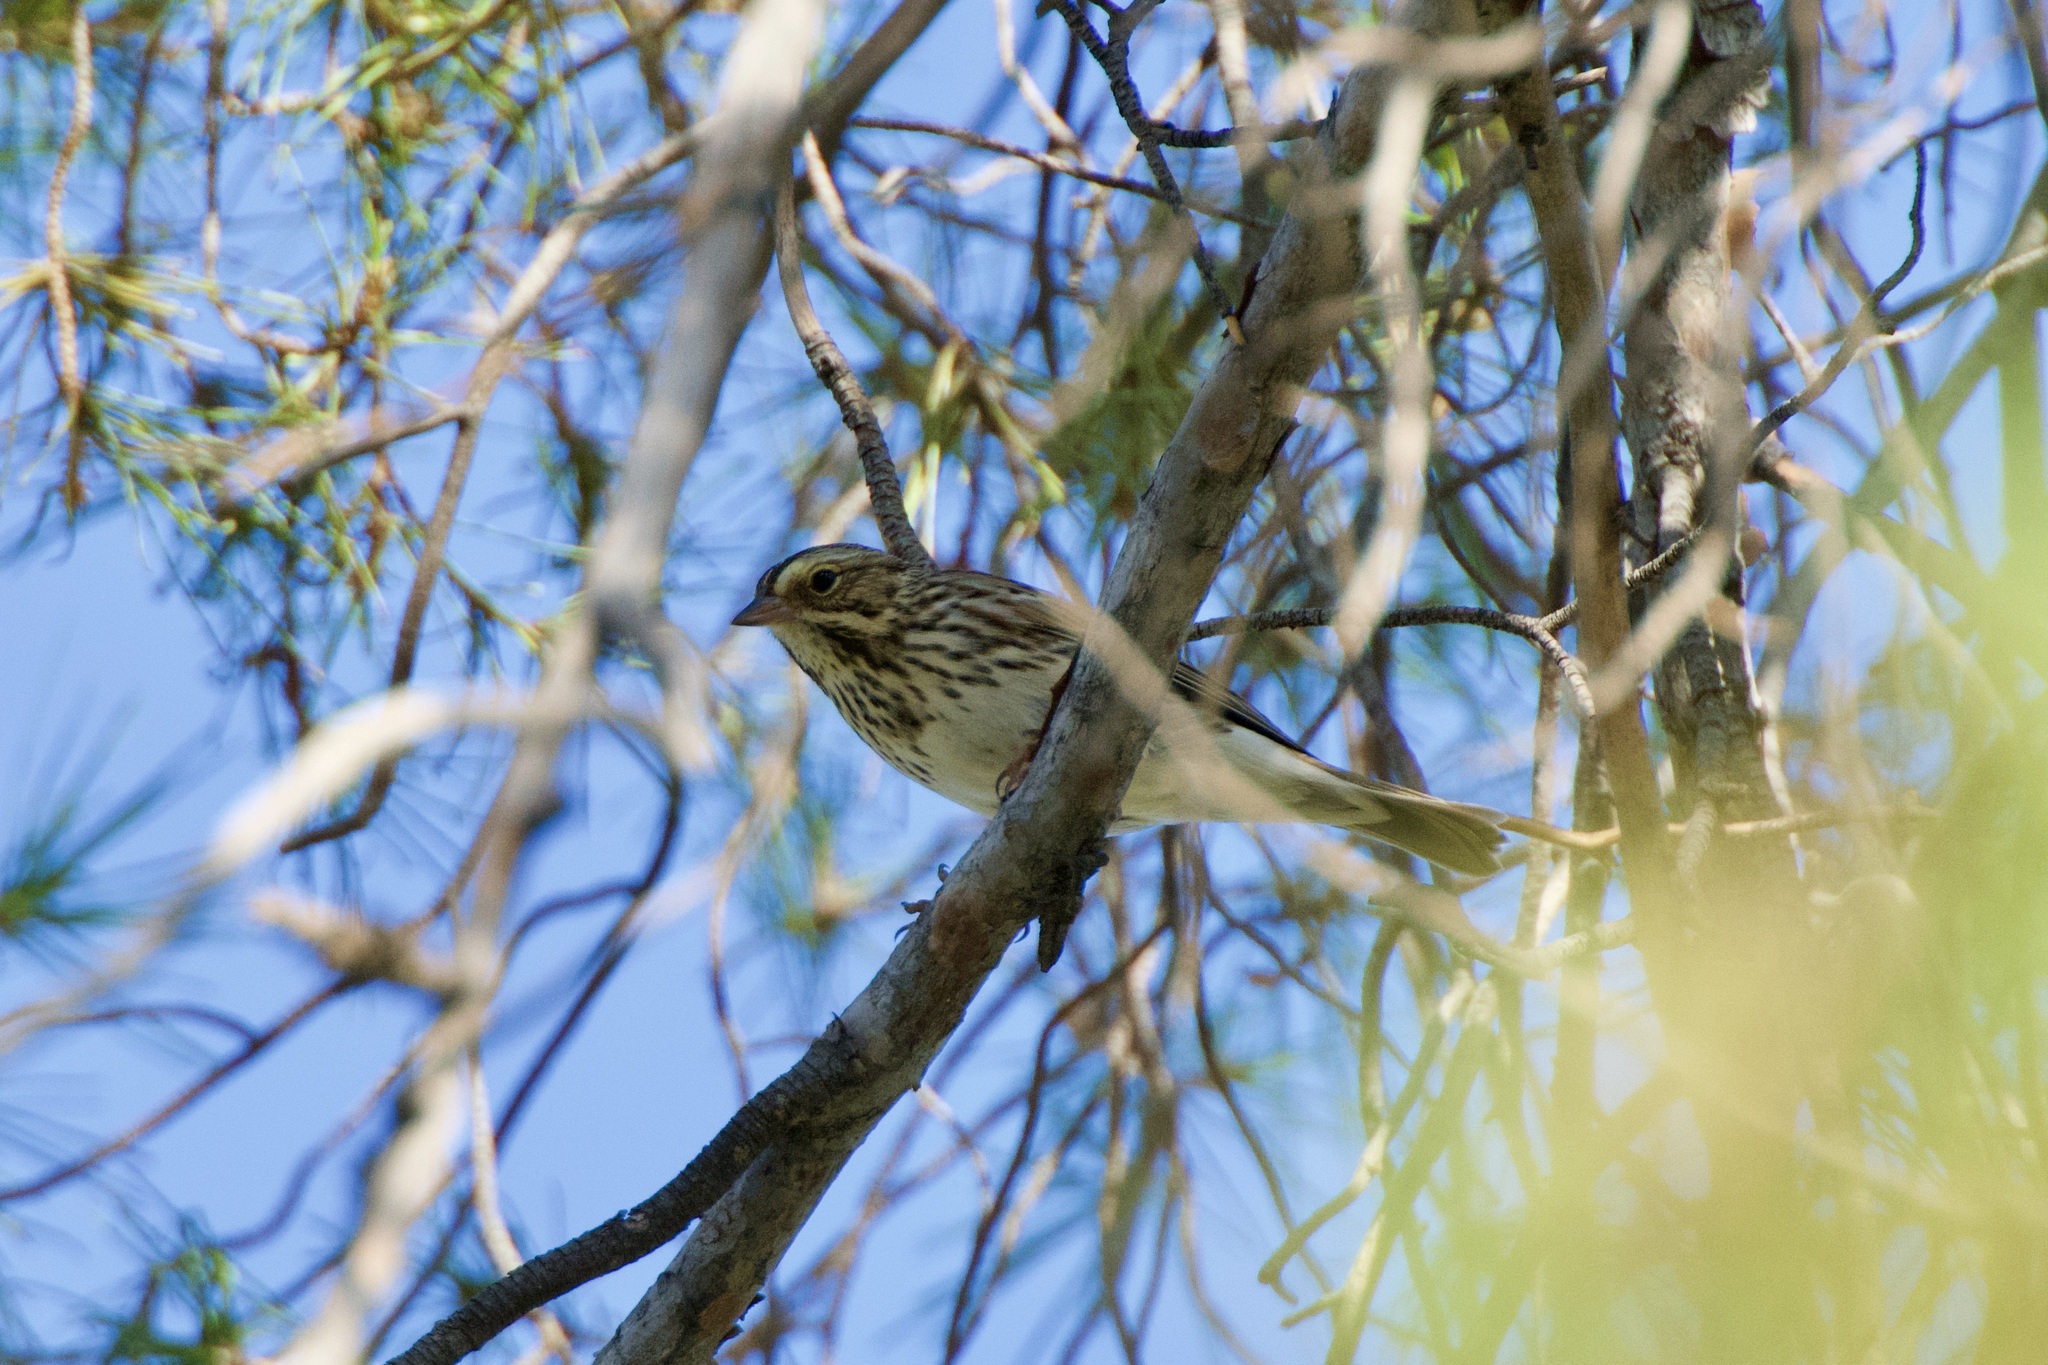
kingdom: Animalia
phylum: Chordata
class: Aves
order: Passeriformes
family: Passerellidae
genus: Passerculus
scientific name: Passerculus sandwichensis
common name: Savannah sparrow
